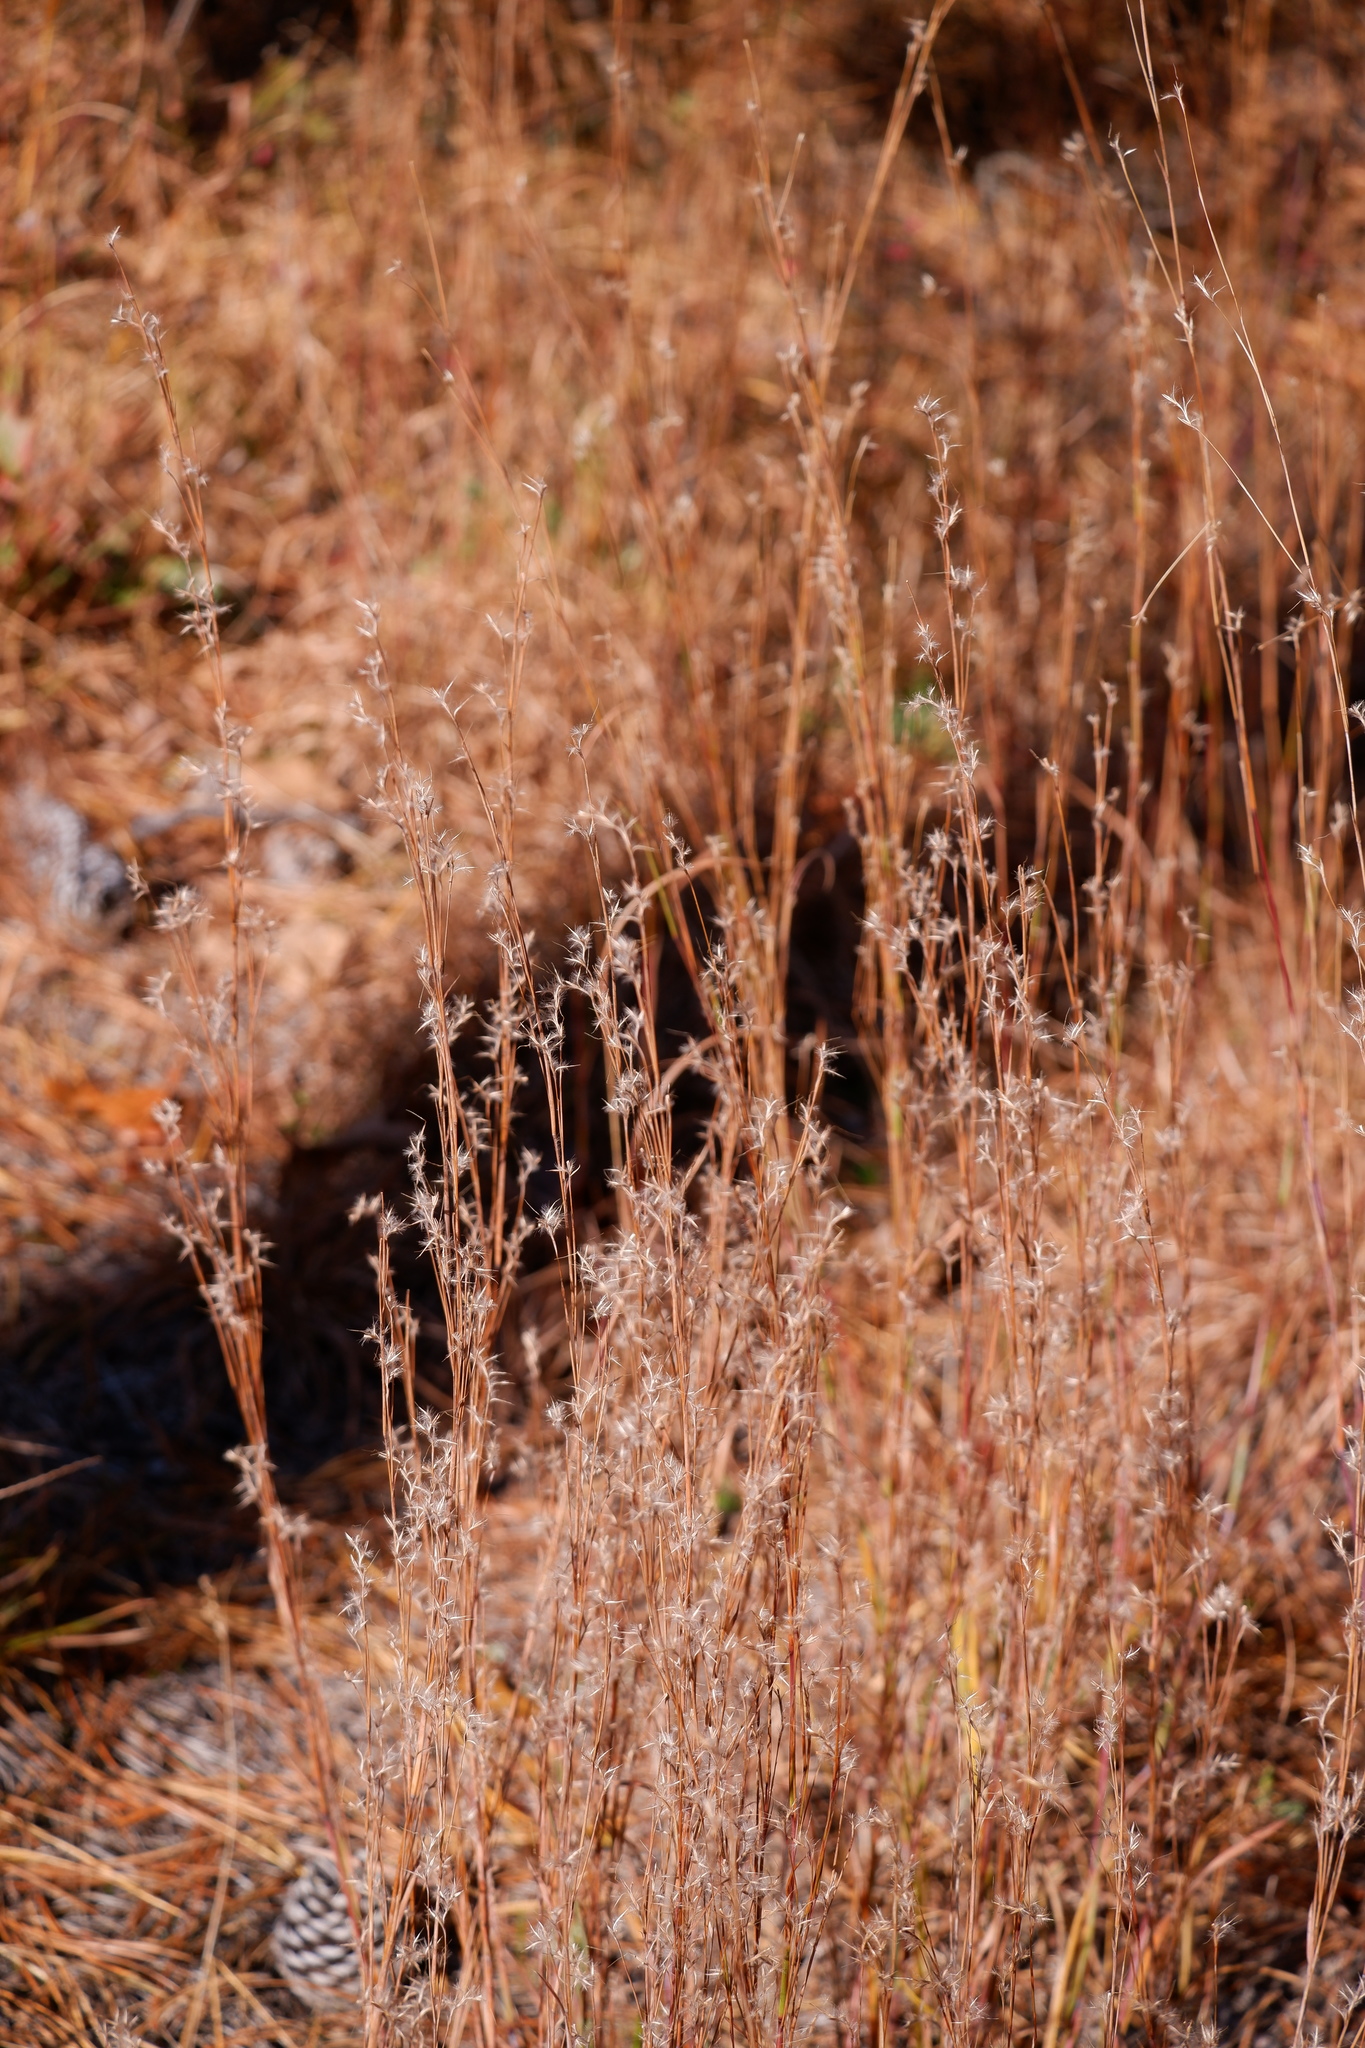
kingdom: Plantae
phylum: Tracheophyta
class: Liliopsida
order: Poales
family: Poaceae
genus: Schizachyrium
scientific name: Schizachyrium scoparium
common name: Little bluestem
